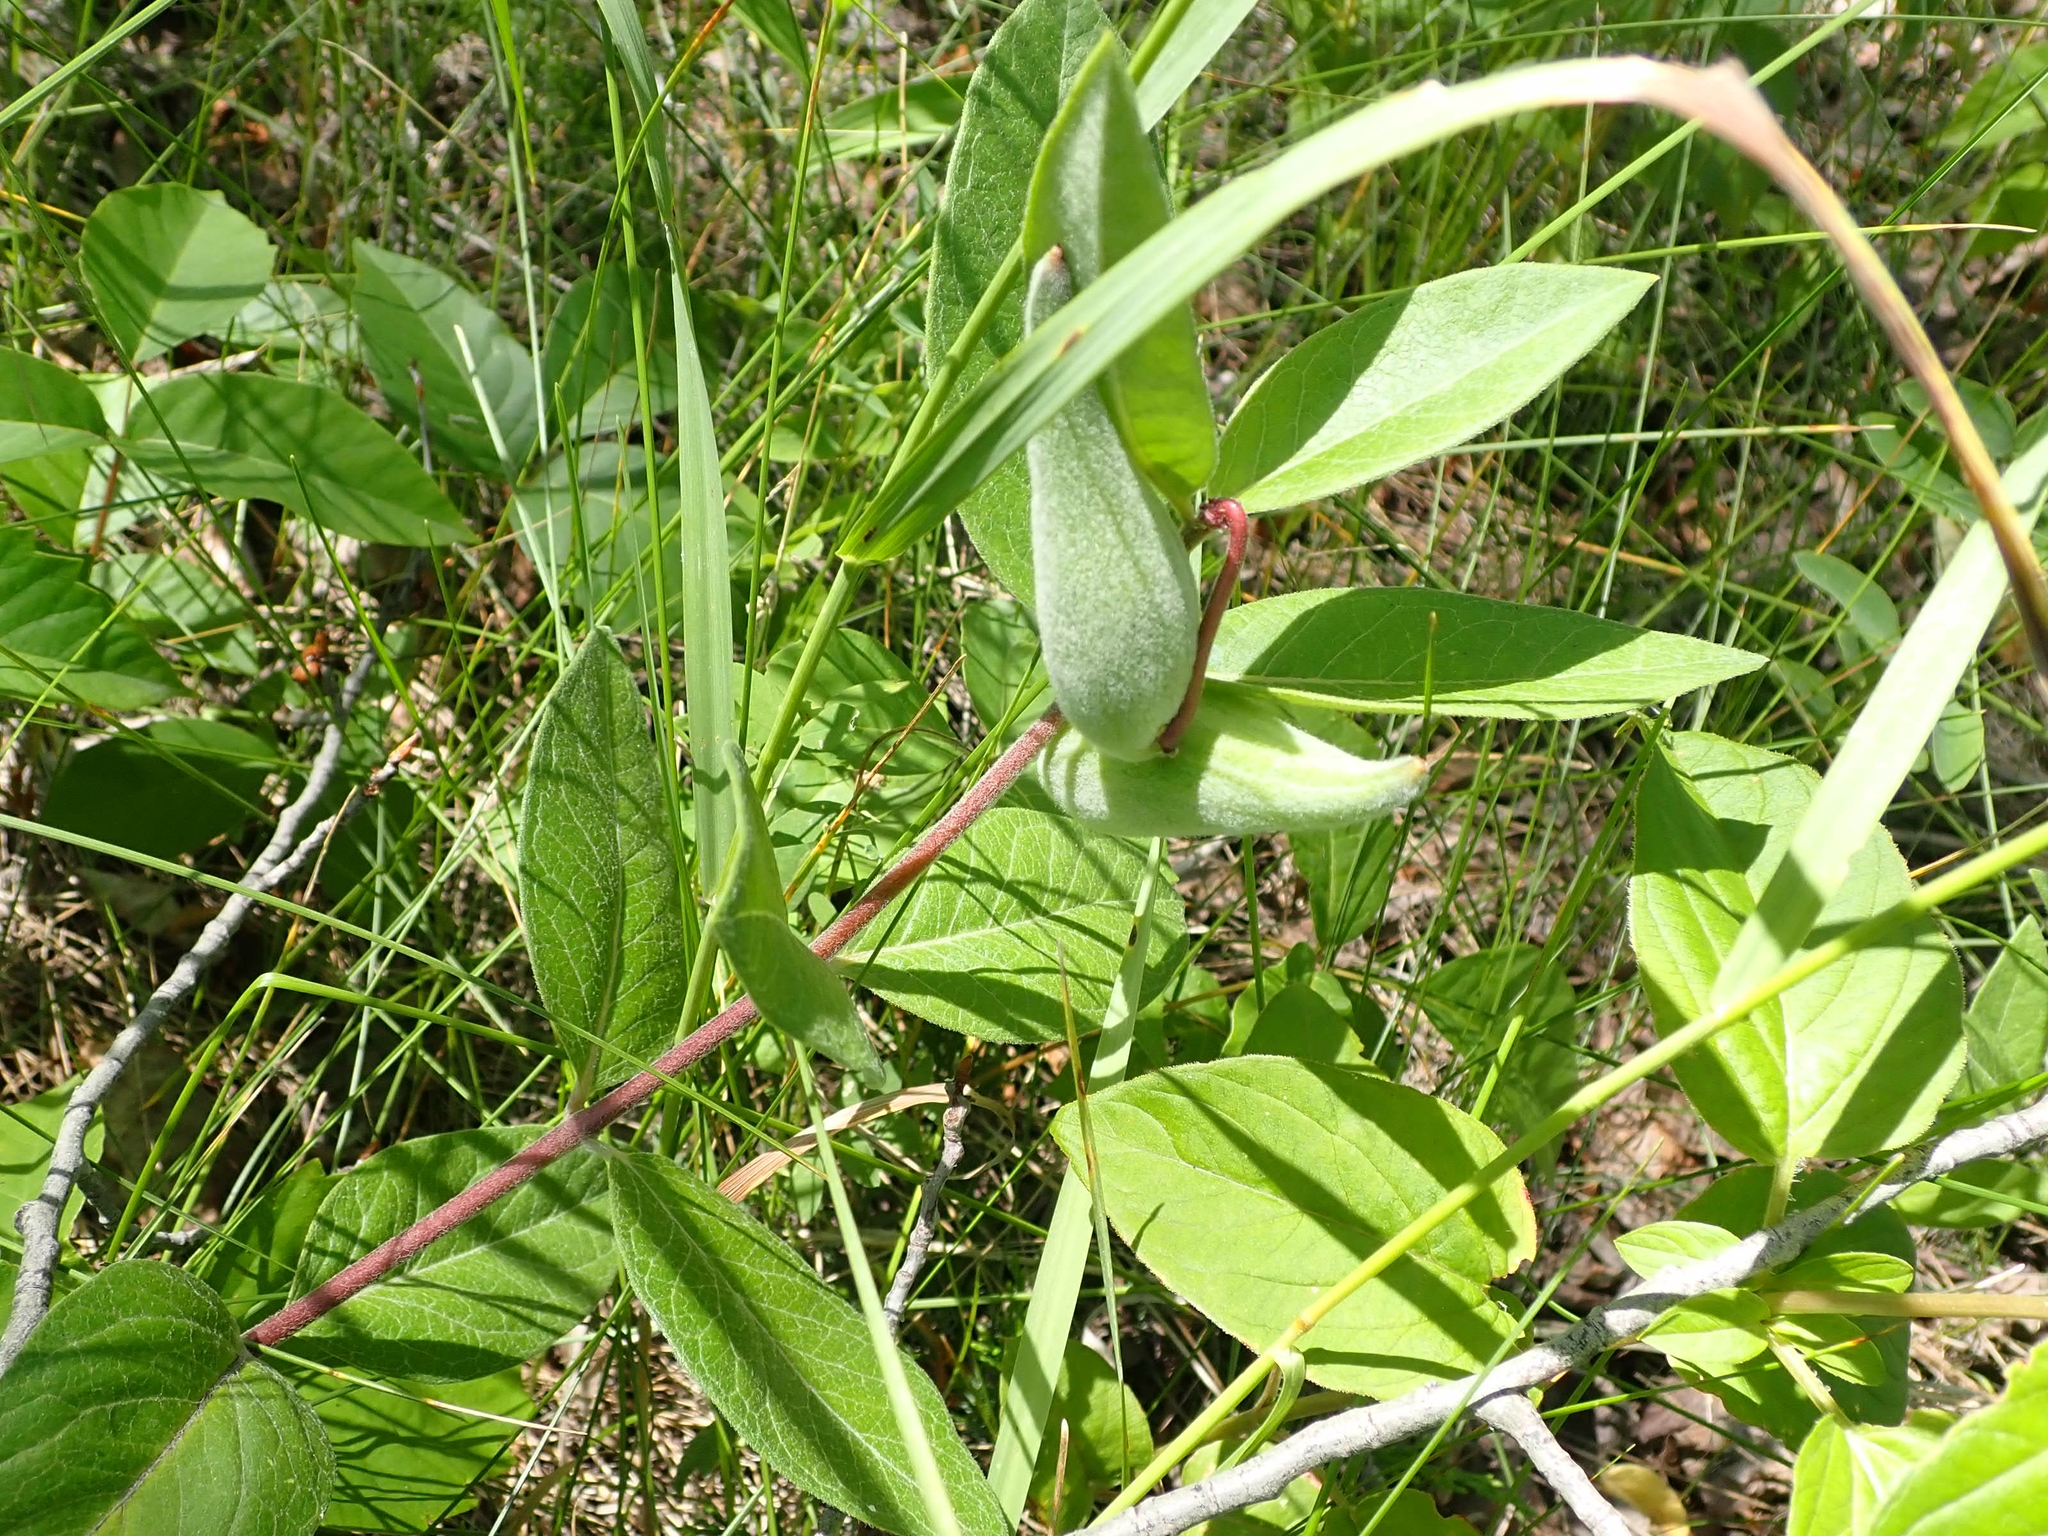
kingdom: Plantae
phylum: Tracheophyta
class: Magnoliopsida
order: Gentianales
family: Apocynaceae
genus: Asclepias
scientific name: Asclepias ovalifolia
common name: Dwarf milkweed
